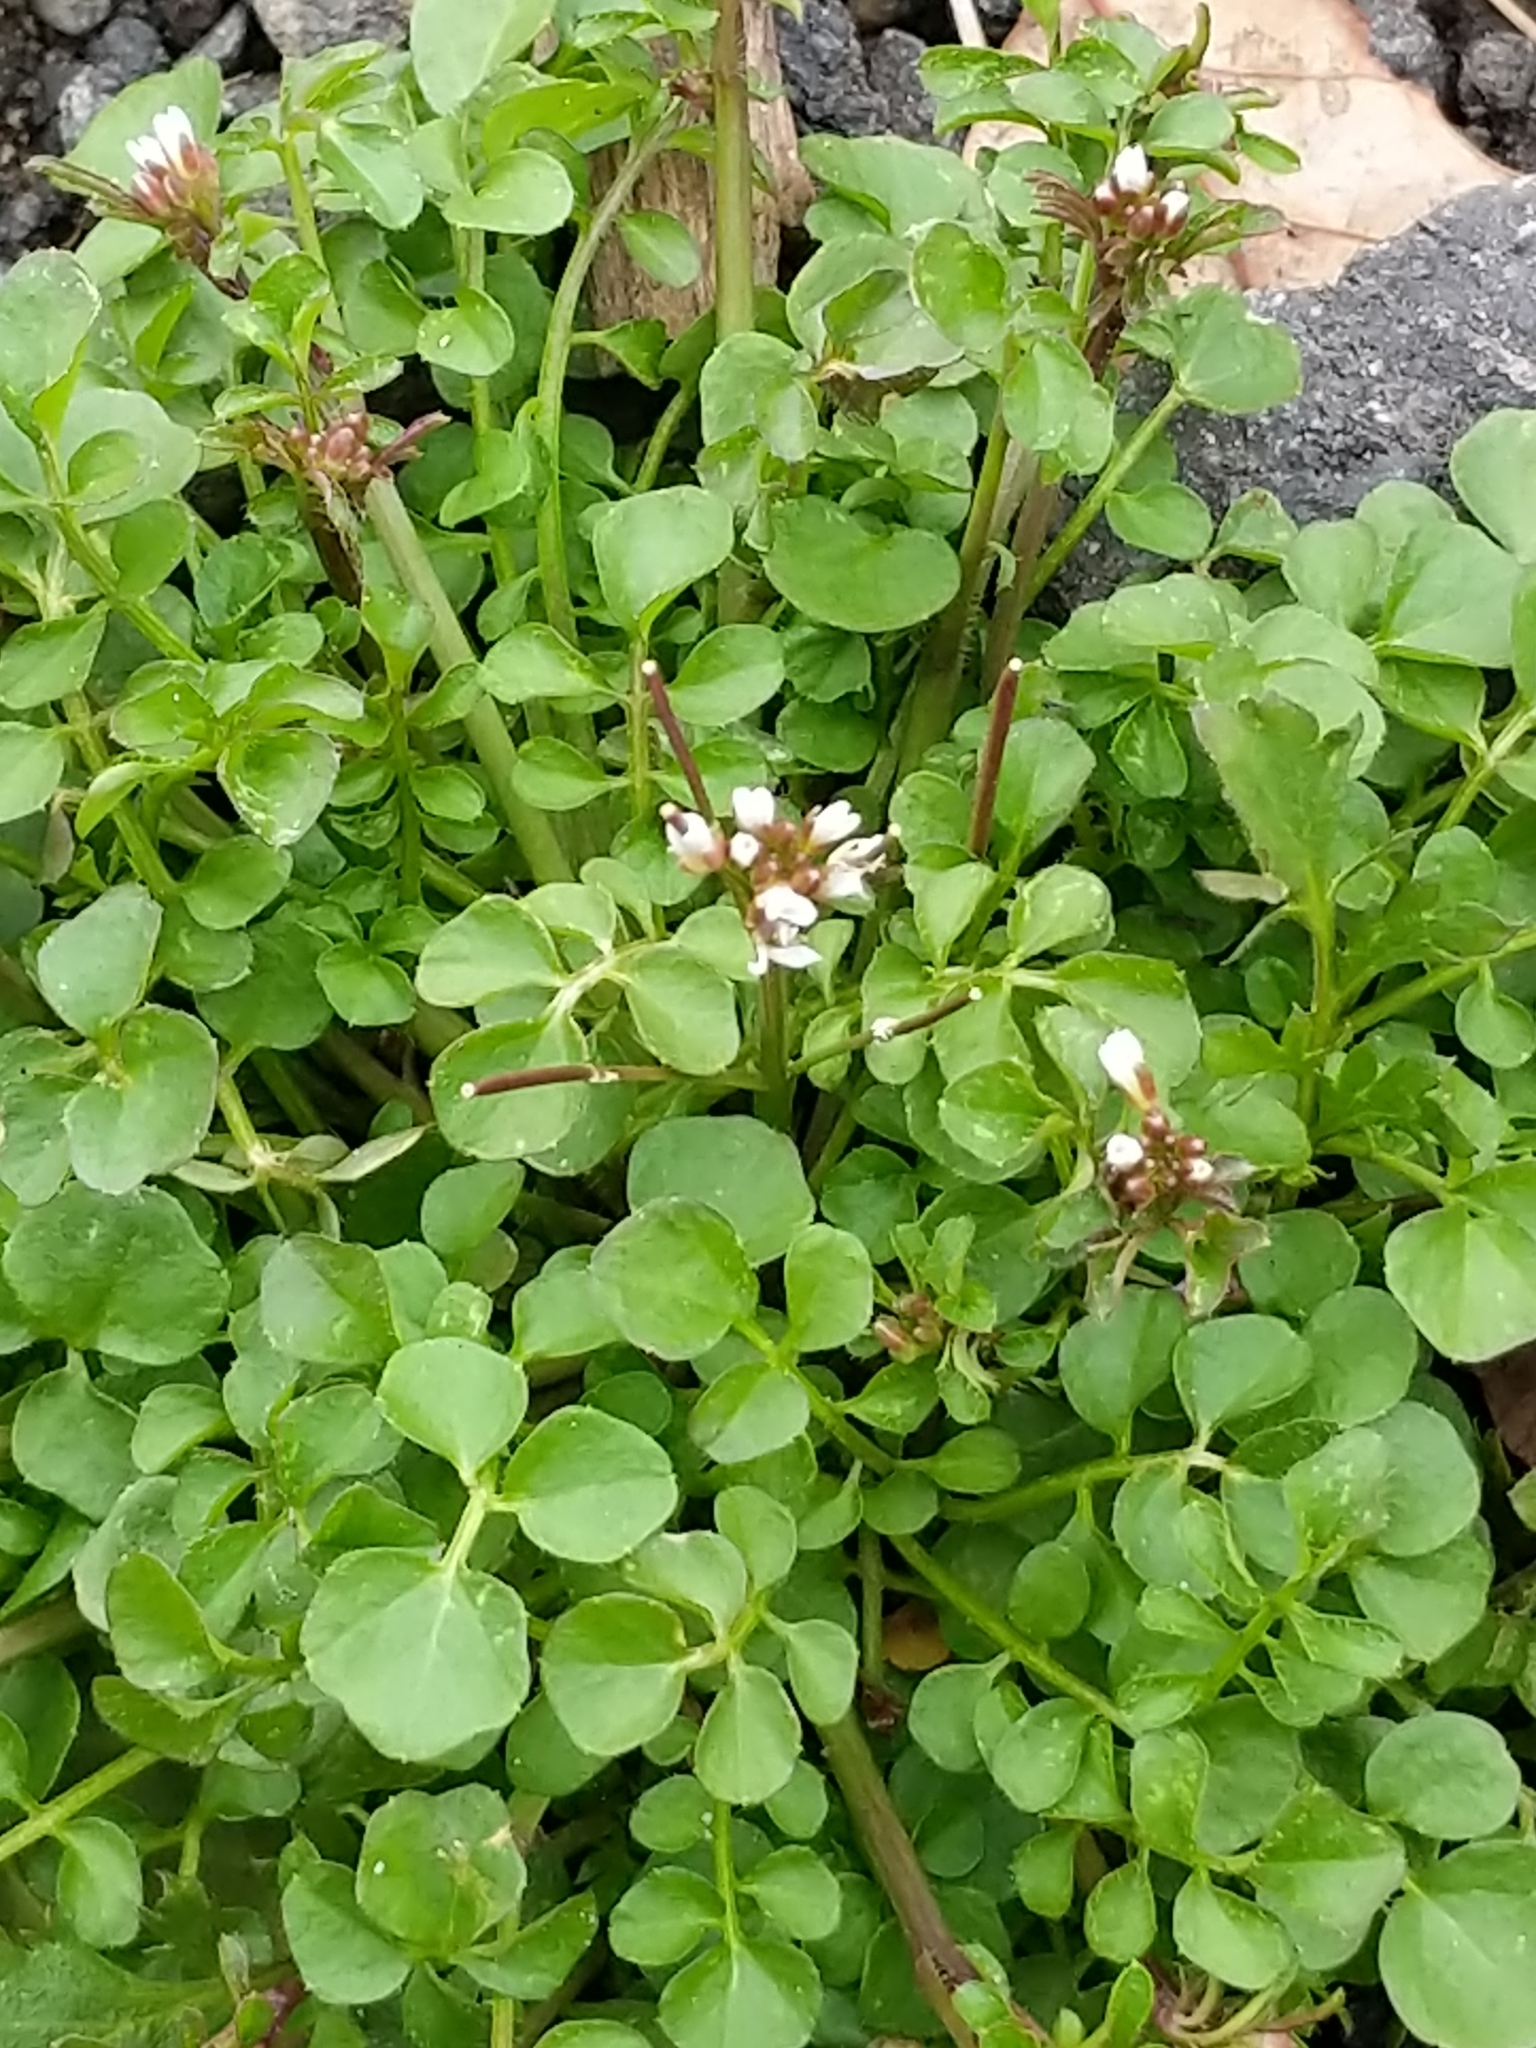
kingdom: Plantae
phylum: Tracheophyta
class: Magnoliopsida
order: Brassicales
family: Brassicaceae
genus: Cardamine
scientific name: Cardamine hirsuta
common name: Hairy bittercress
